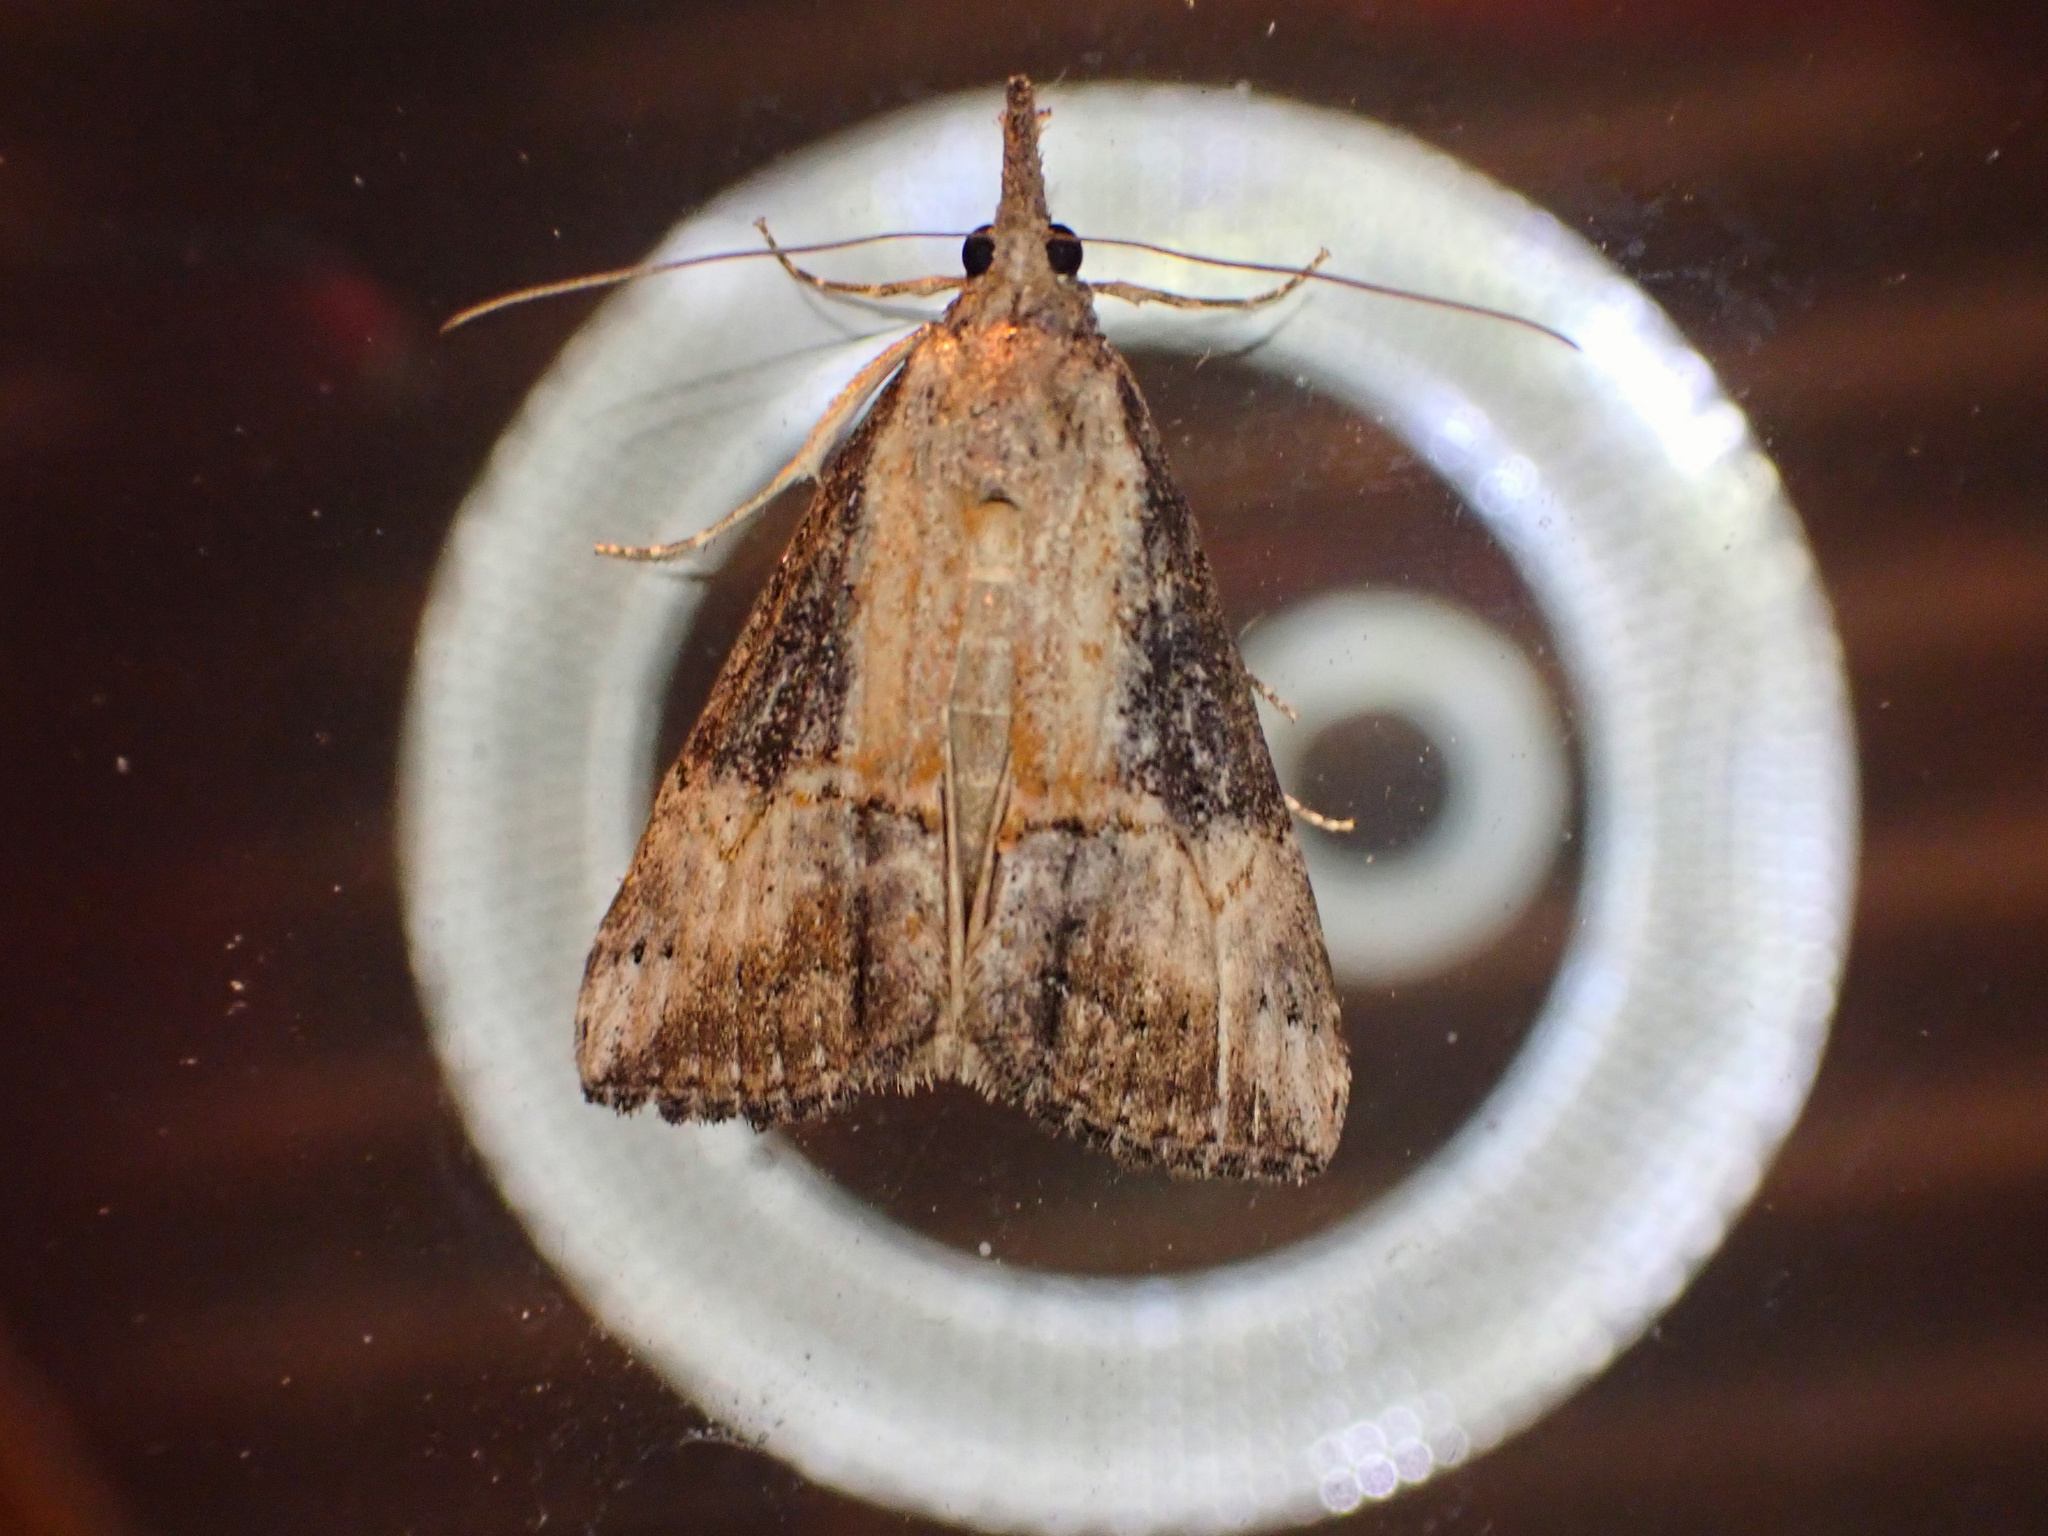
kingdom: Animalia
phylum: Arthropoda
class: Insecta
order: Lepidoptera
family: Erebidae
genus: Hypena
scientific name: Hypena scabra
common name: Green cloverworm
